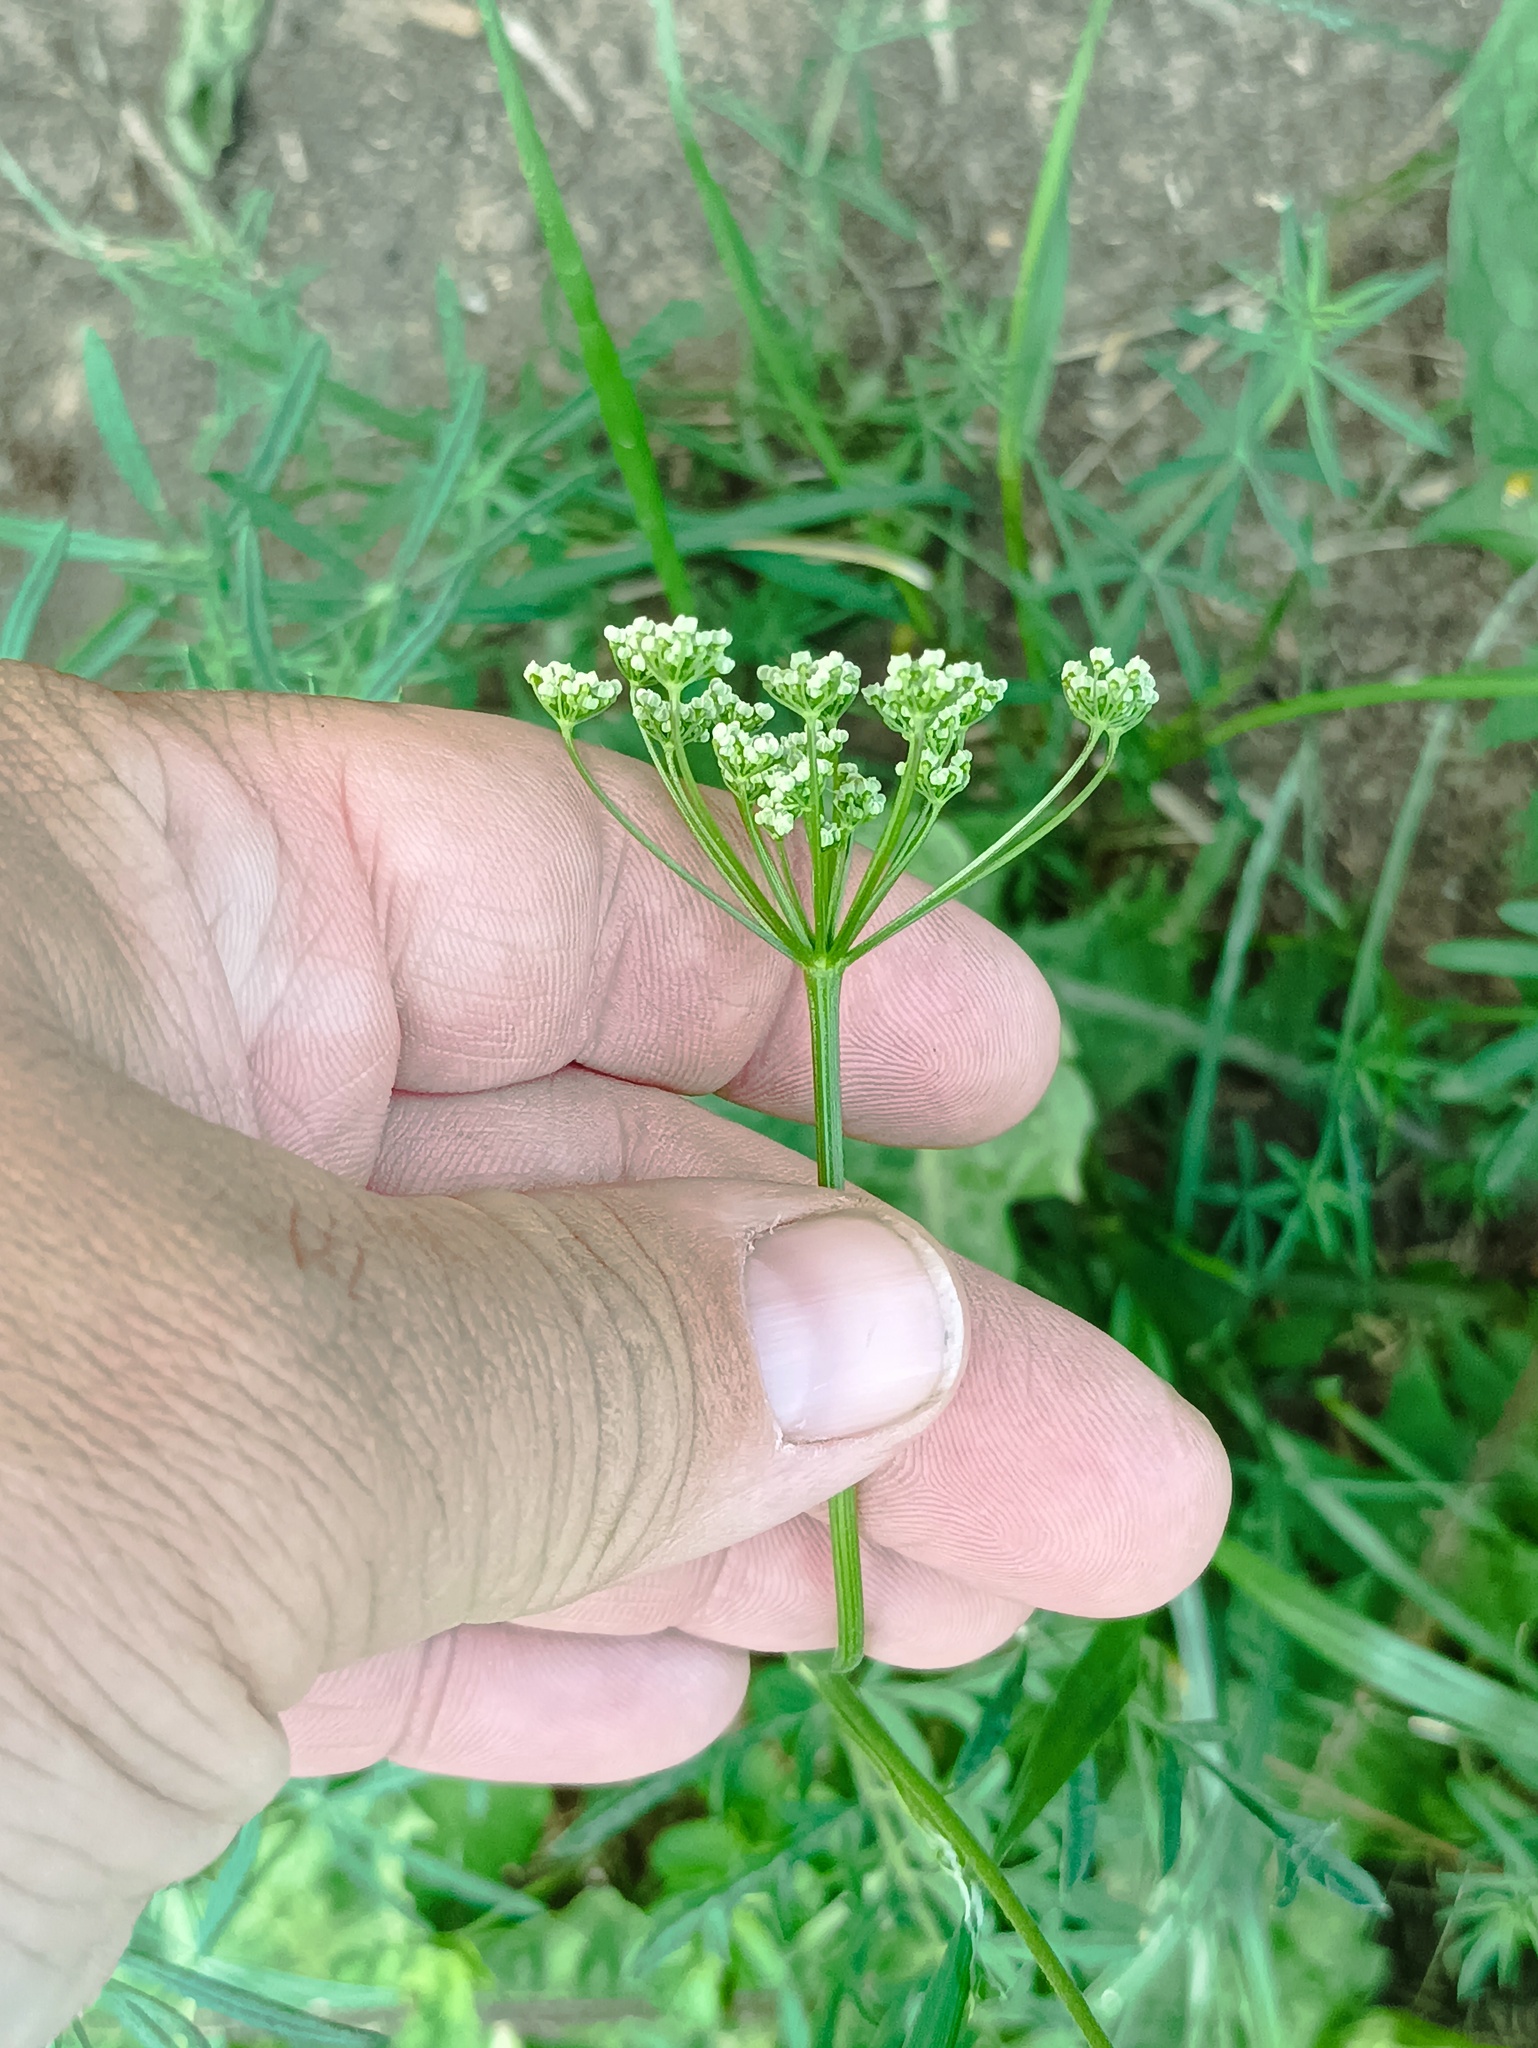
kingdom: Plantae
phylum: Tracheophyta
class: Magnoliopsida
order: Apiales
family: Apiaceae
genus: Pimpinella
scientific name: Pimpinella saxifraga
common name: Burnet-saxifrage
